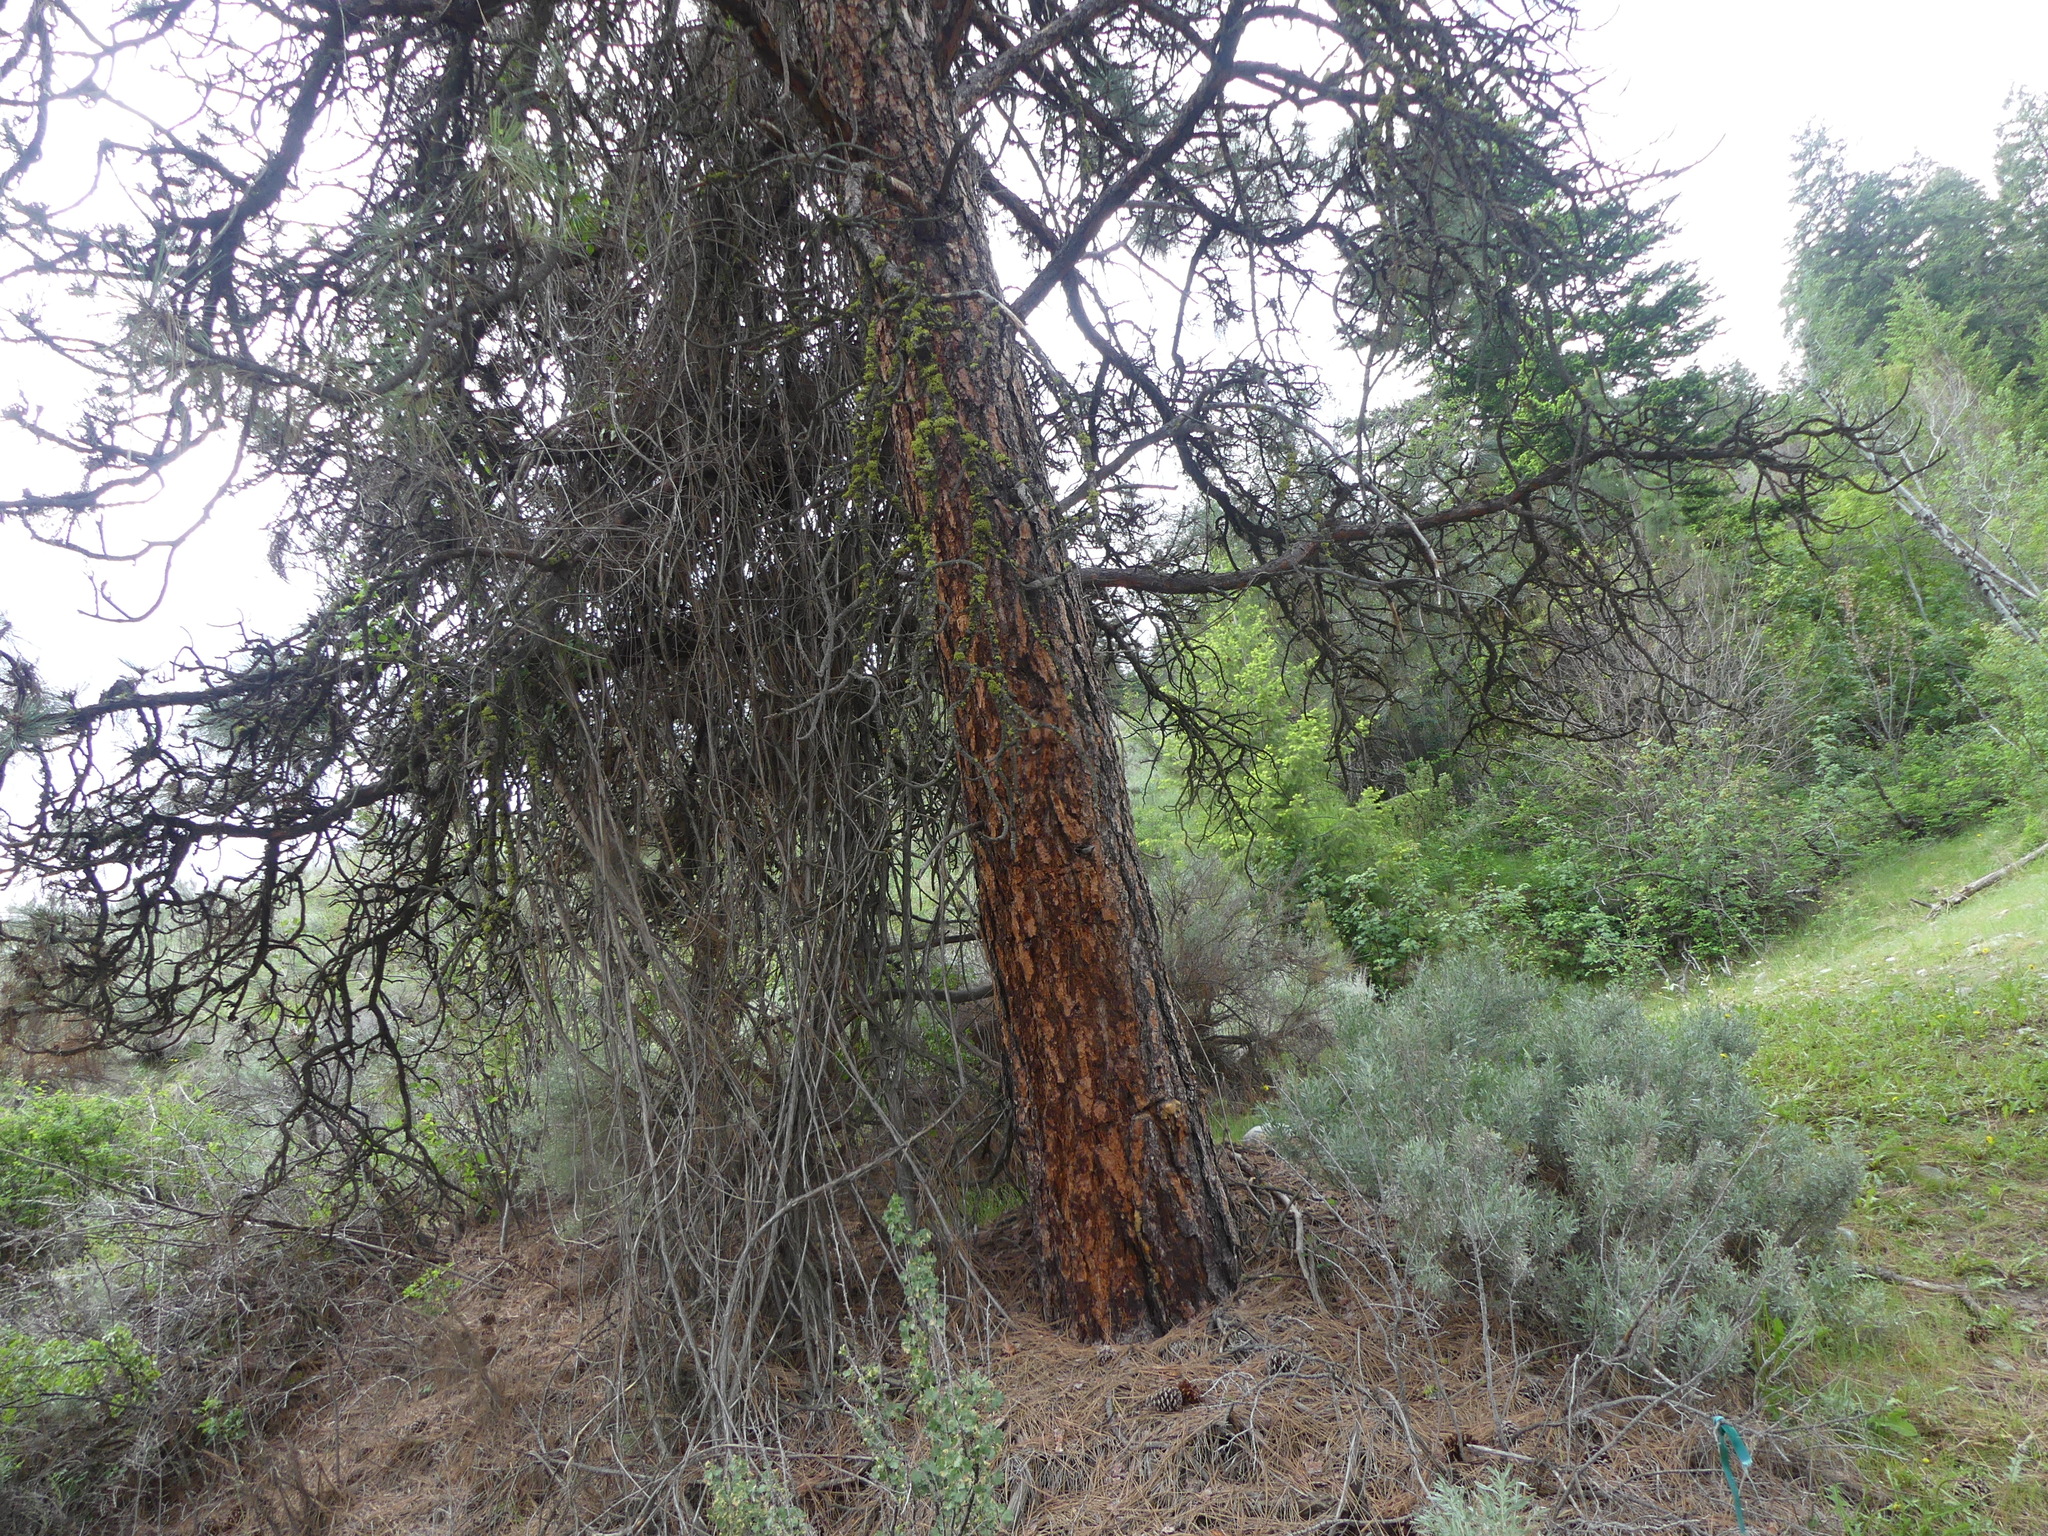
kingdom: Plantae
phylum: Tracheophyta
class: Pinopsida
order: Pinales
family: Pinaceae
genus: Pinus
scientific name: Pinus ponderosa
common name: Western yellow-pine
